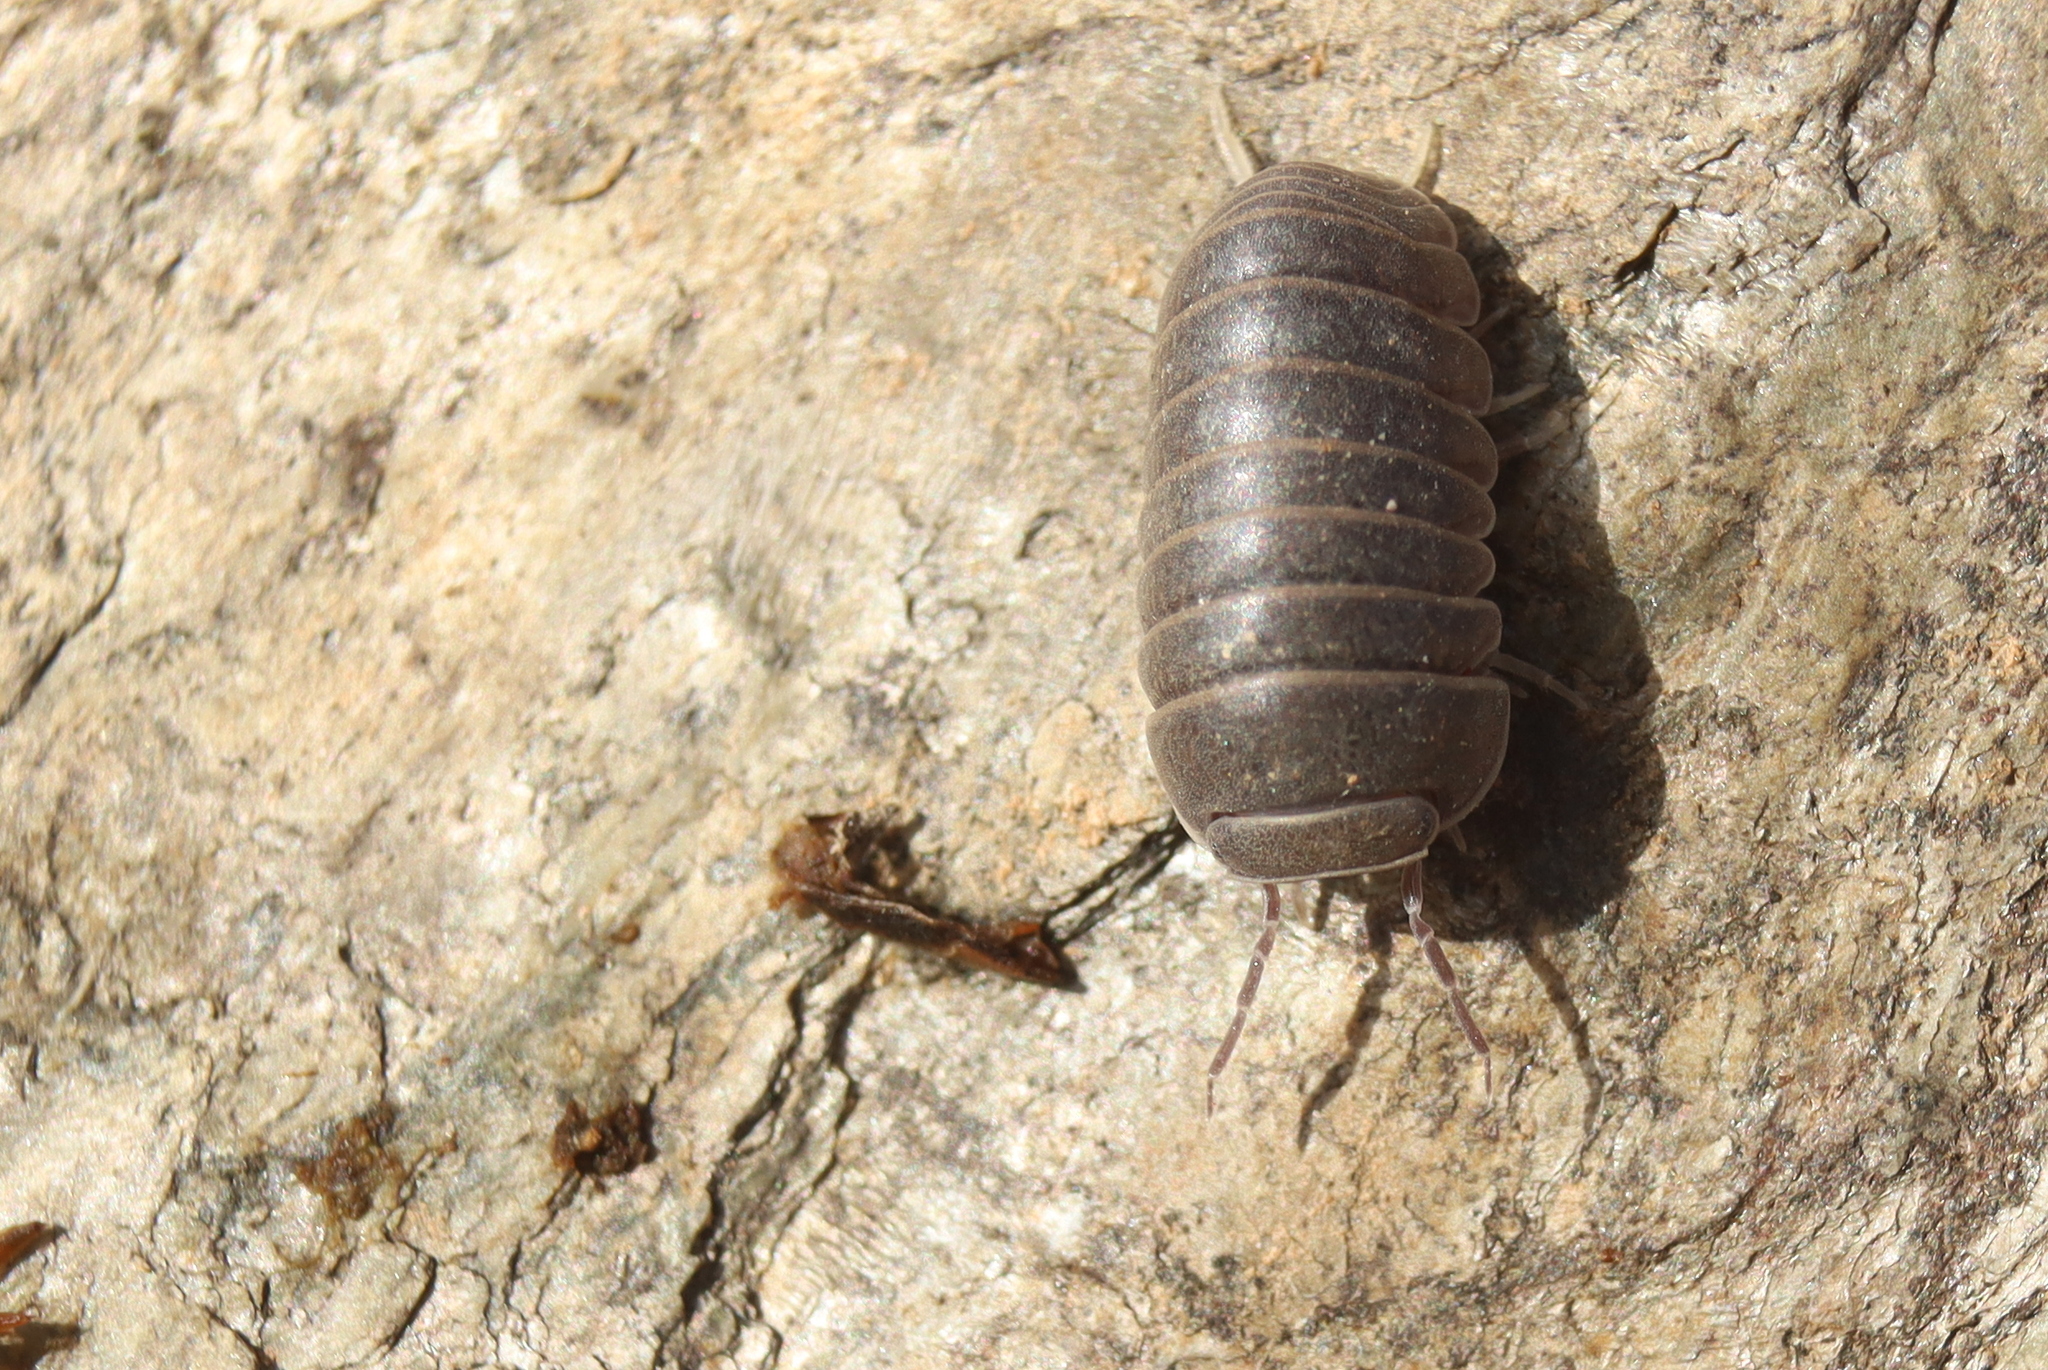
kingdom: Animalia
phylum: Arthropoda
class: Malacostraca
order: Isopoda
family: Armadillidae
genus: Armadillo
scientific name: Armadillo officinalis
